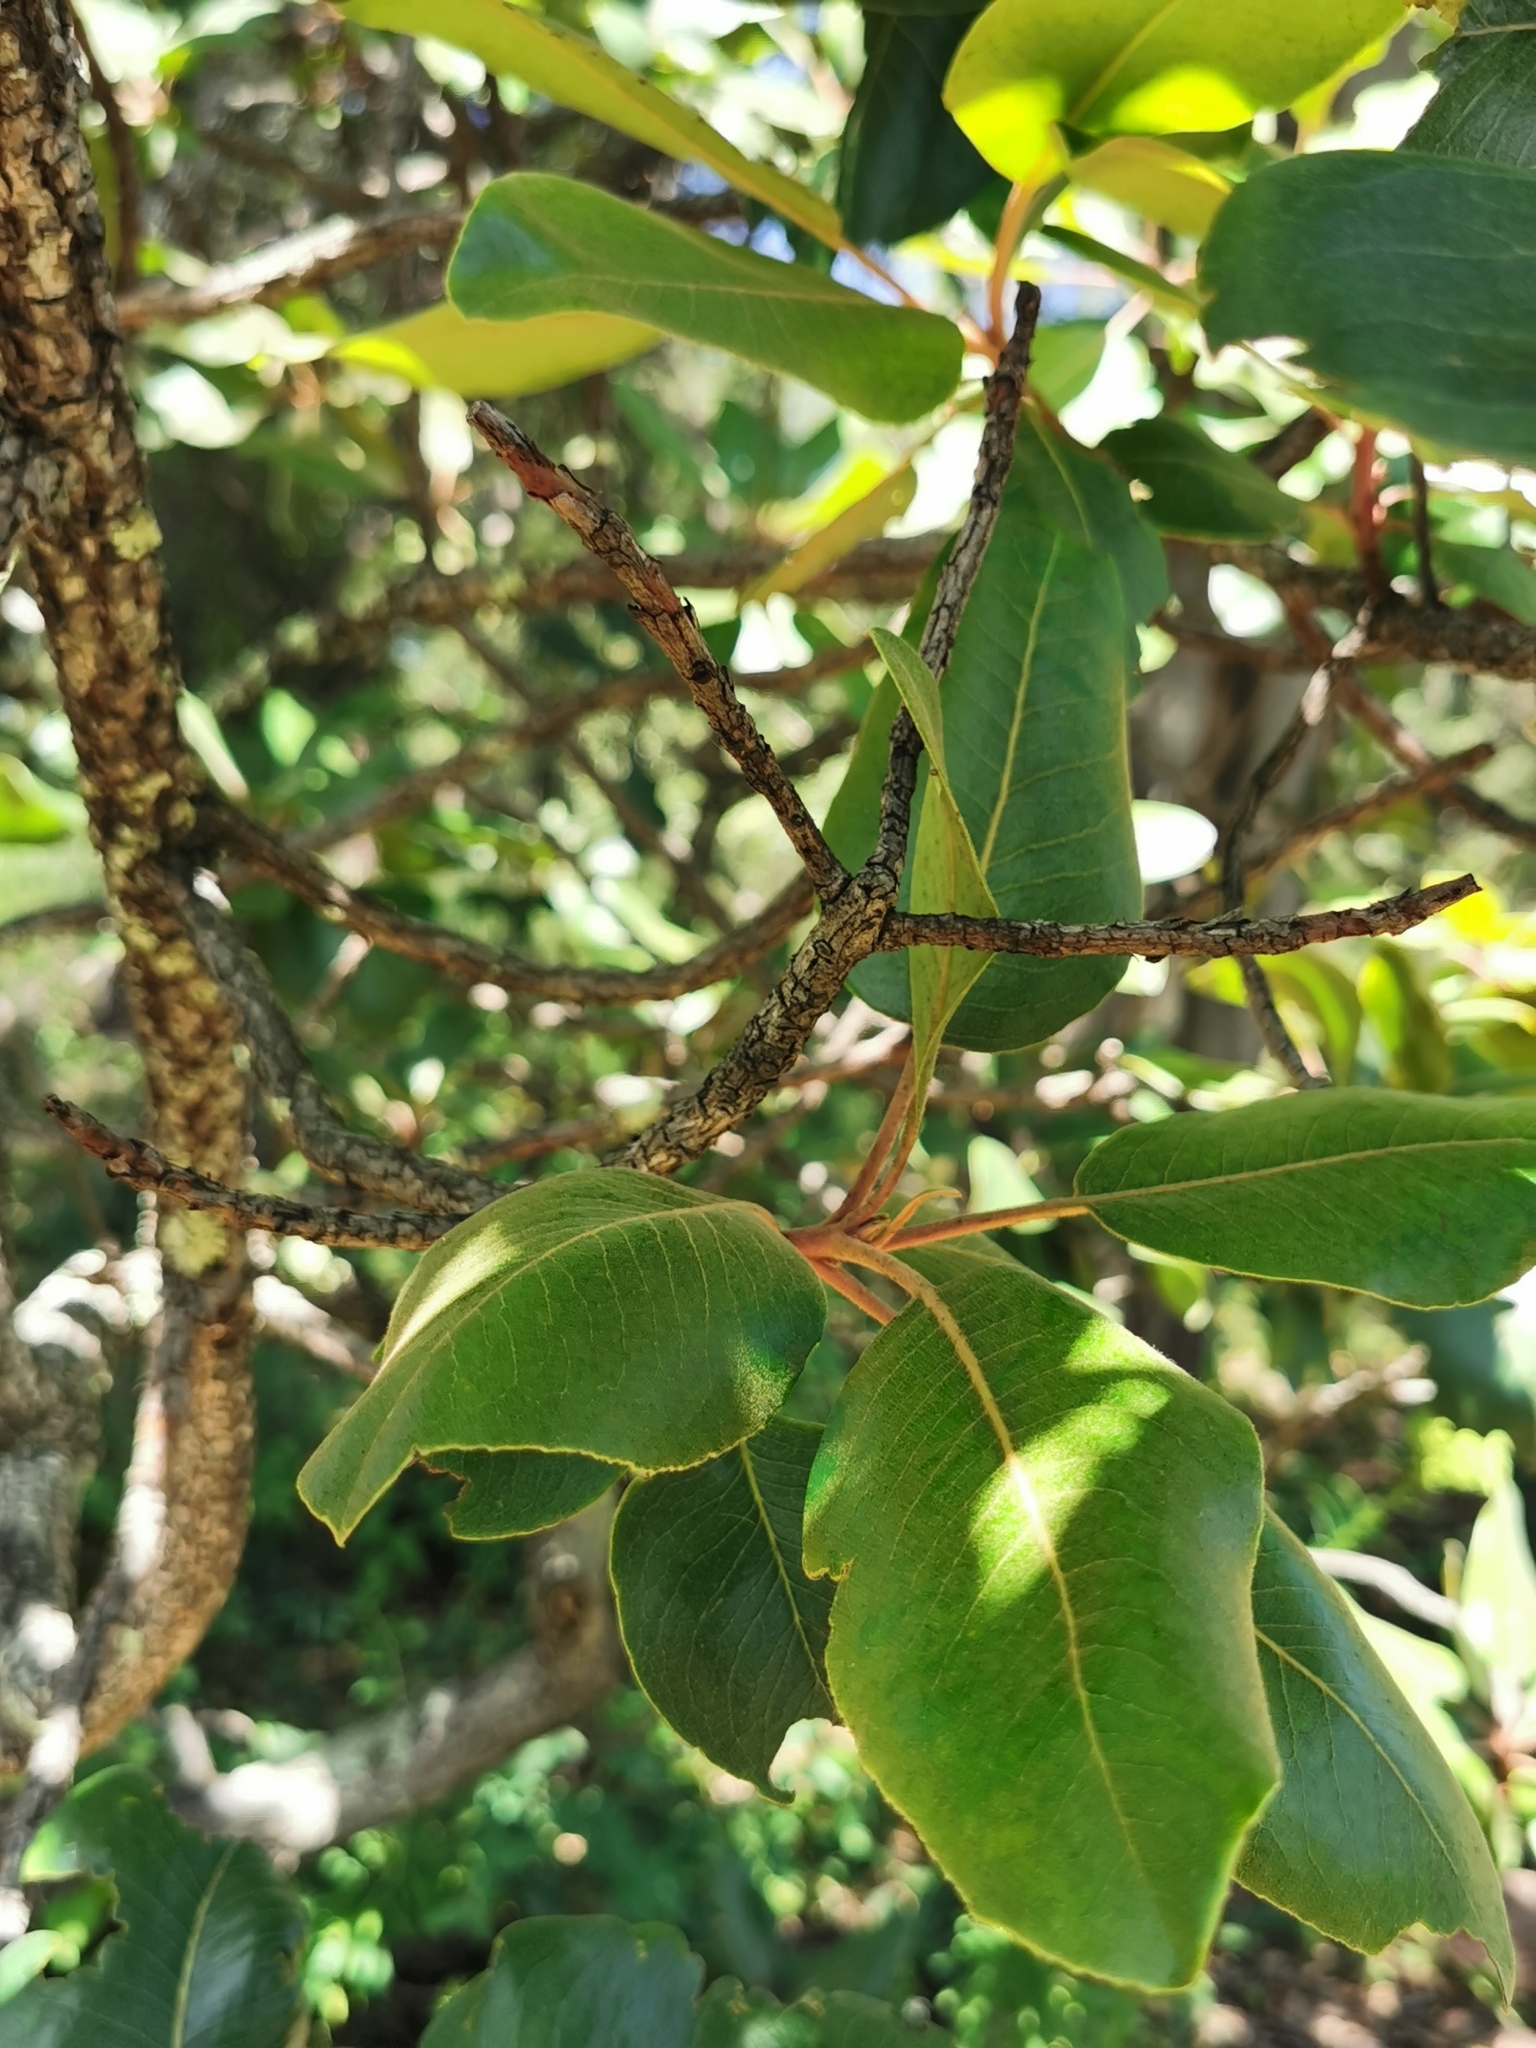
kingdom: Plantae
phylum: Tracheophyta
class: Magnoliopsida
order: Ericales
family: Ericaceae
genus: Arbutus
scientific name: Arbutus madrensis
